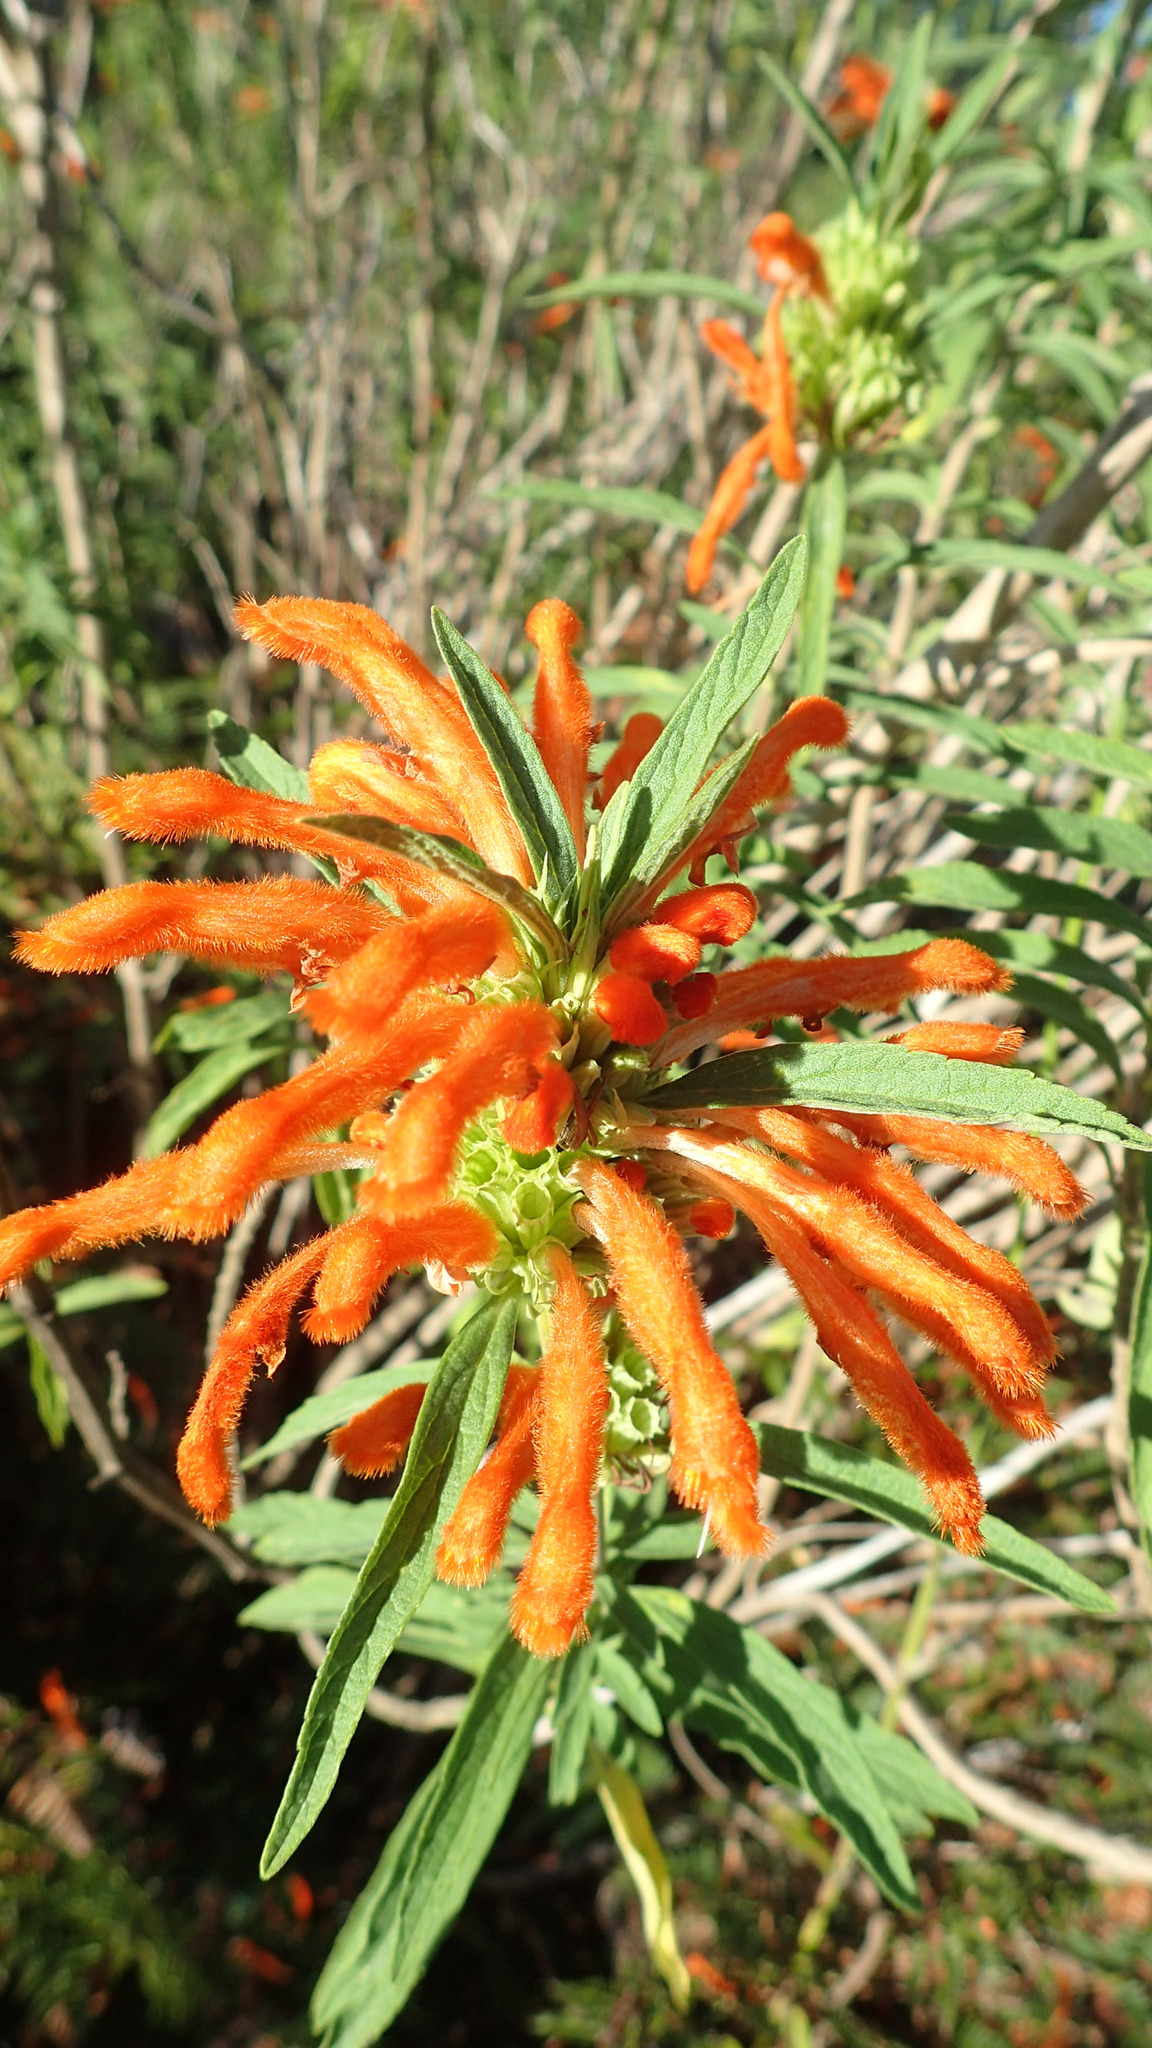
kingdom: Plantae
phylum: Tracheophyta
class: Magnoliopsida
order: Lamiales
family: Lamiaceae
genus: Leonotis
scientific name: Leonotis leonurus
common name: Lion's ear
